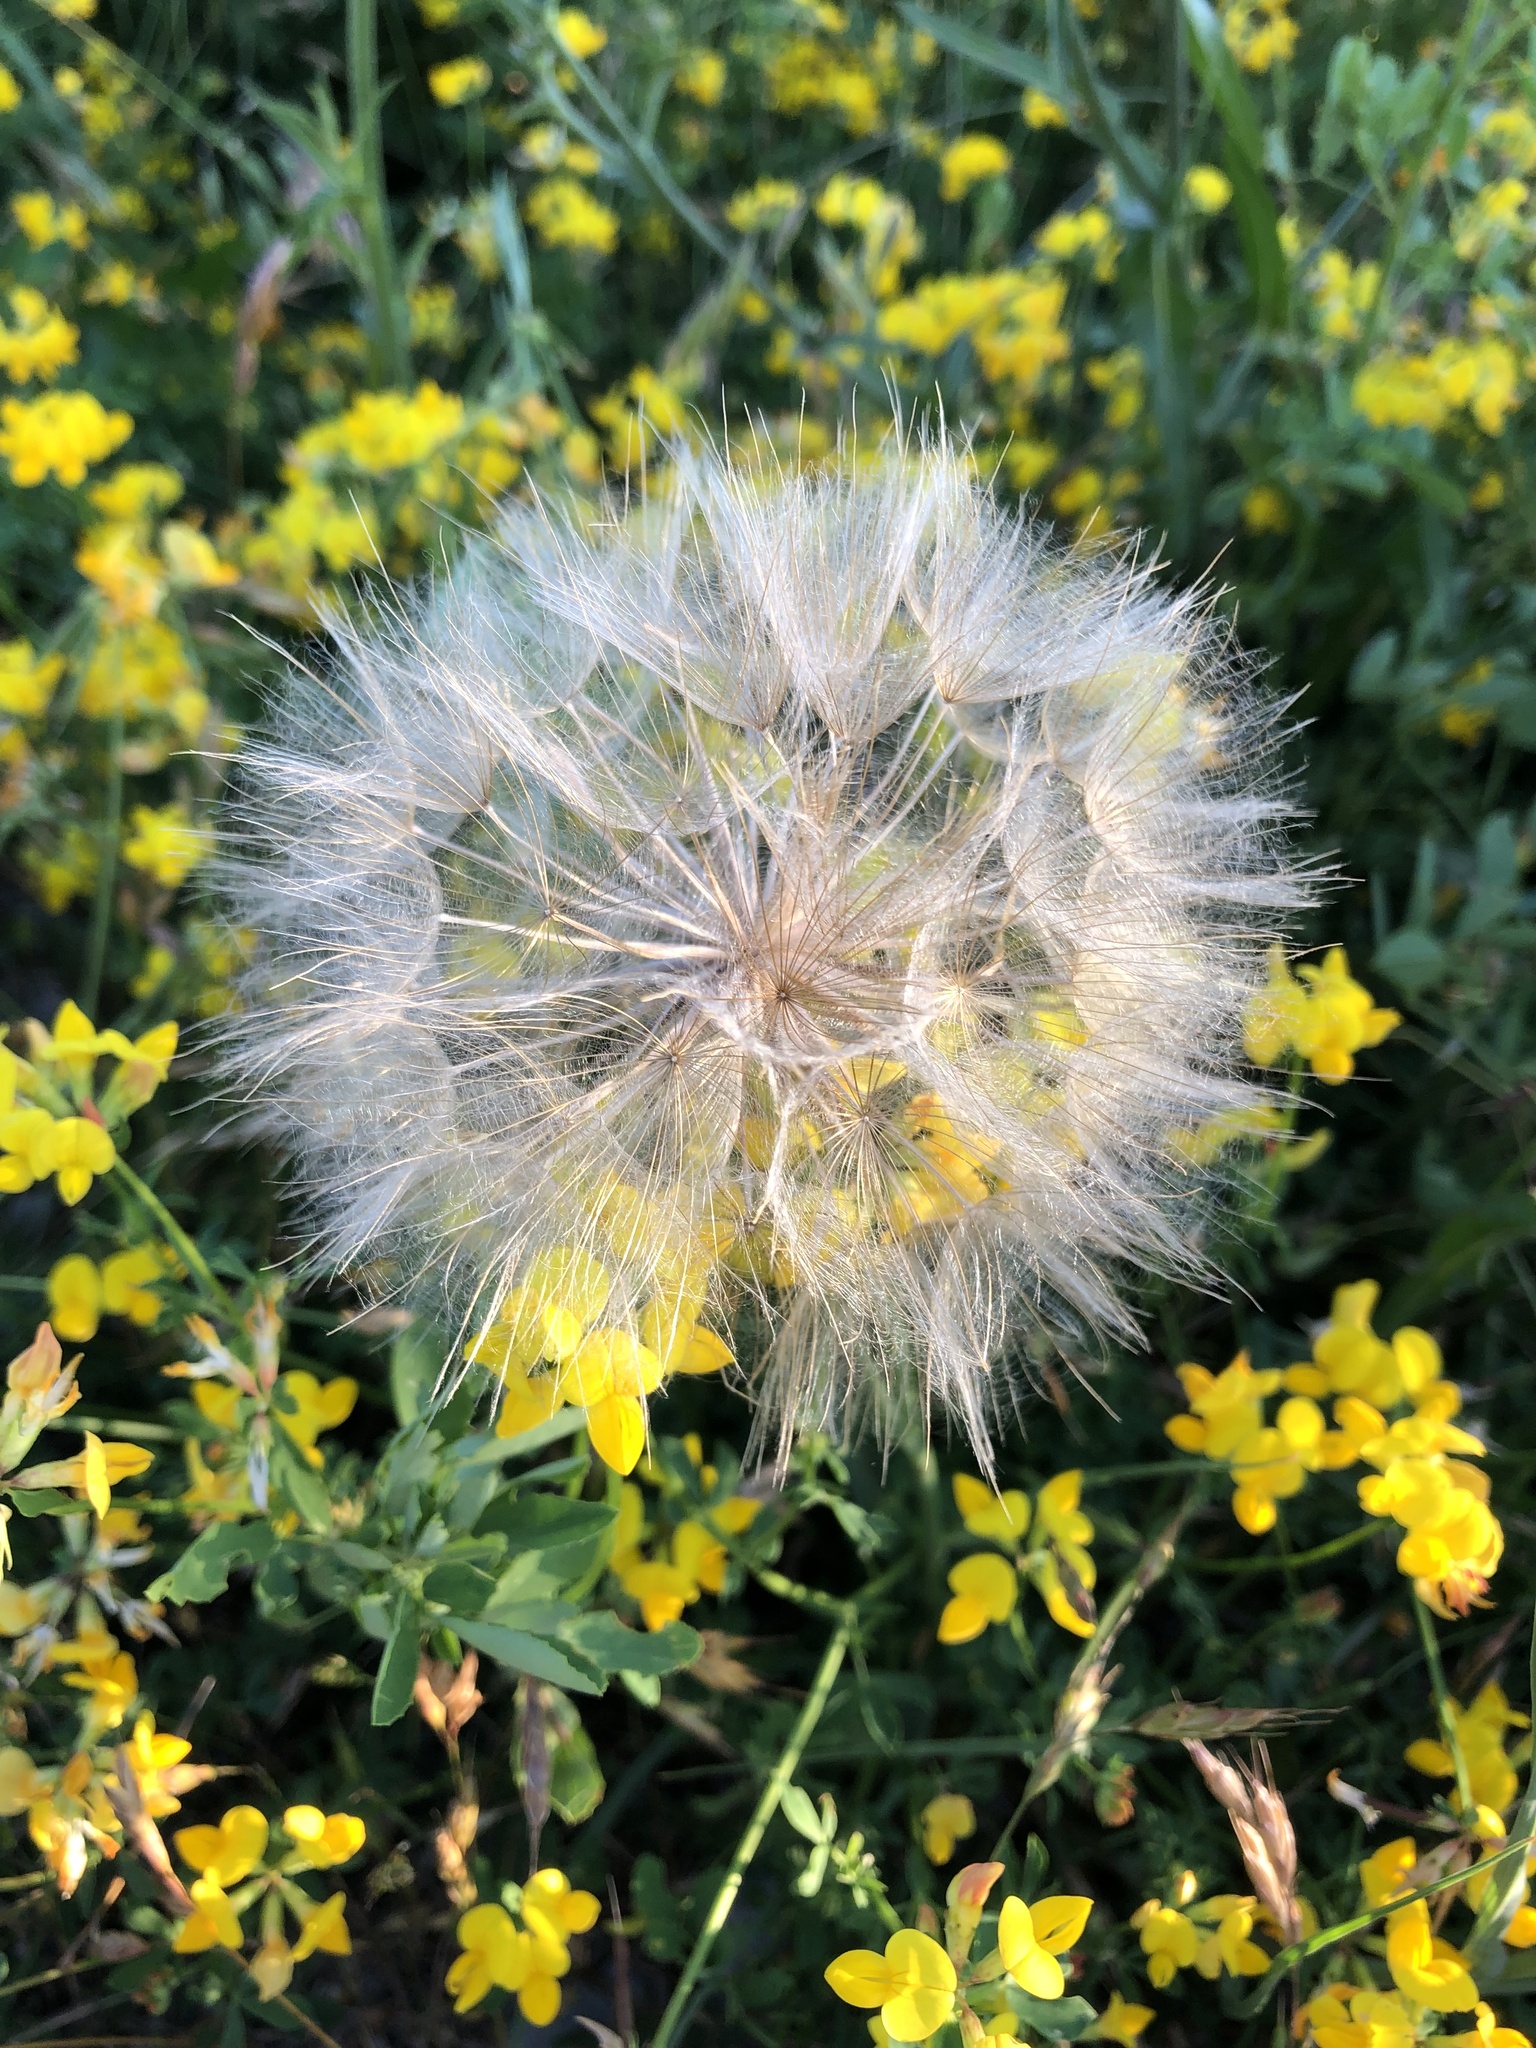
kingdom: Plantae
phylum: Tracheophyta
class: Magnoliopsida
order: Asterales
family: Asteraceae
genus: Tragopogon
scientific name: Tragopogon dubius
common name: Yellow salsify
